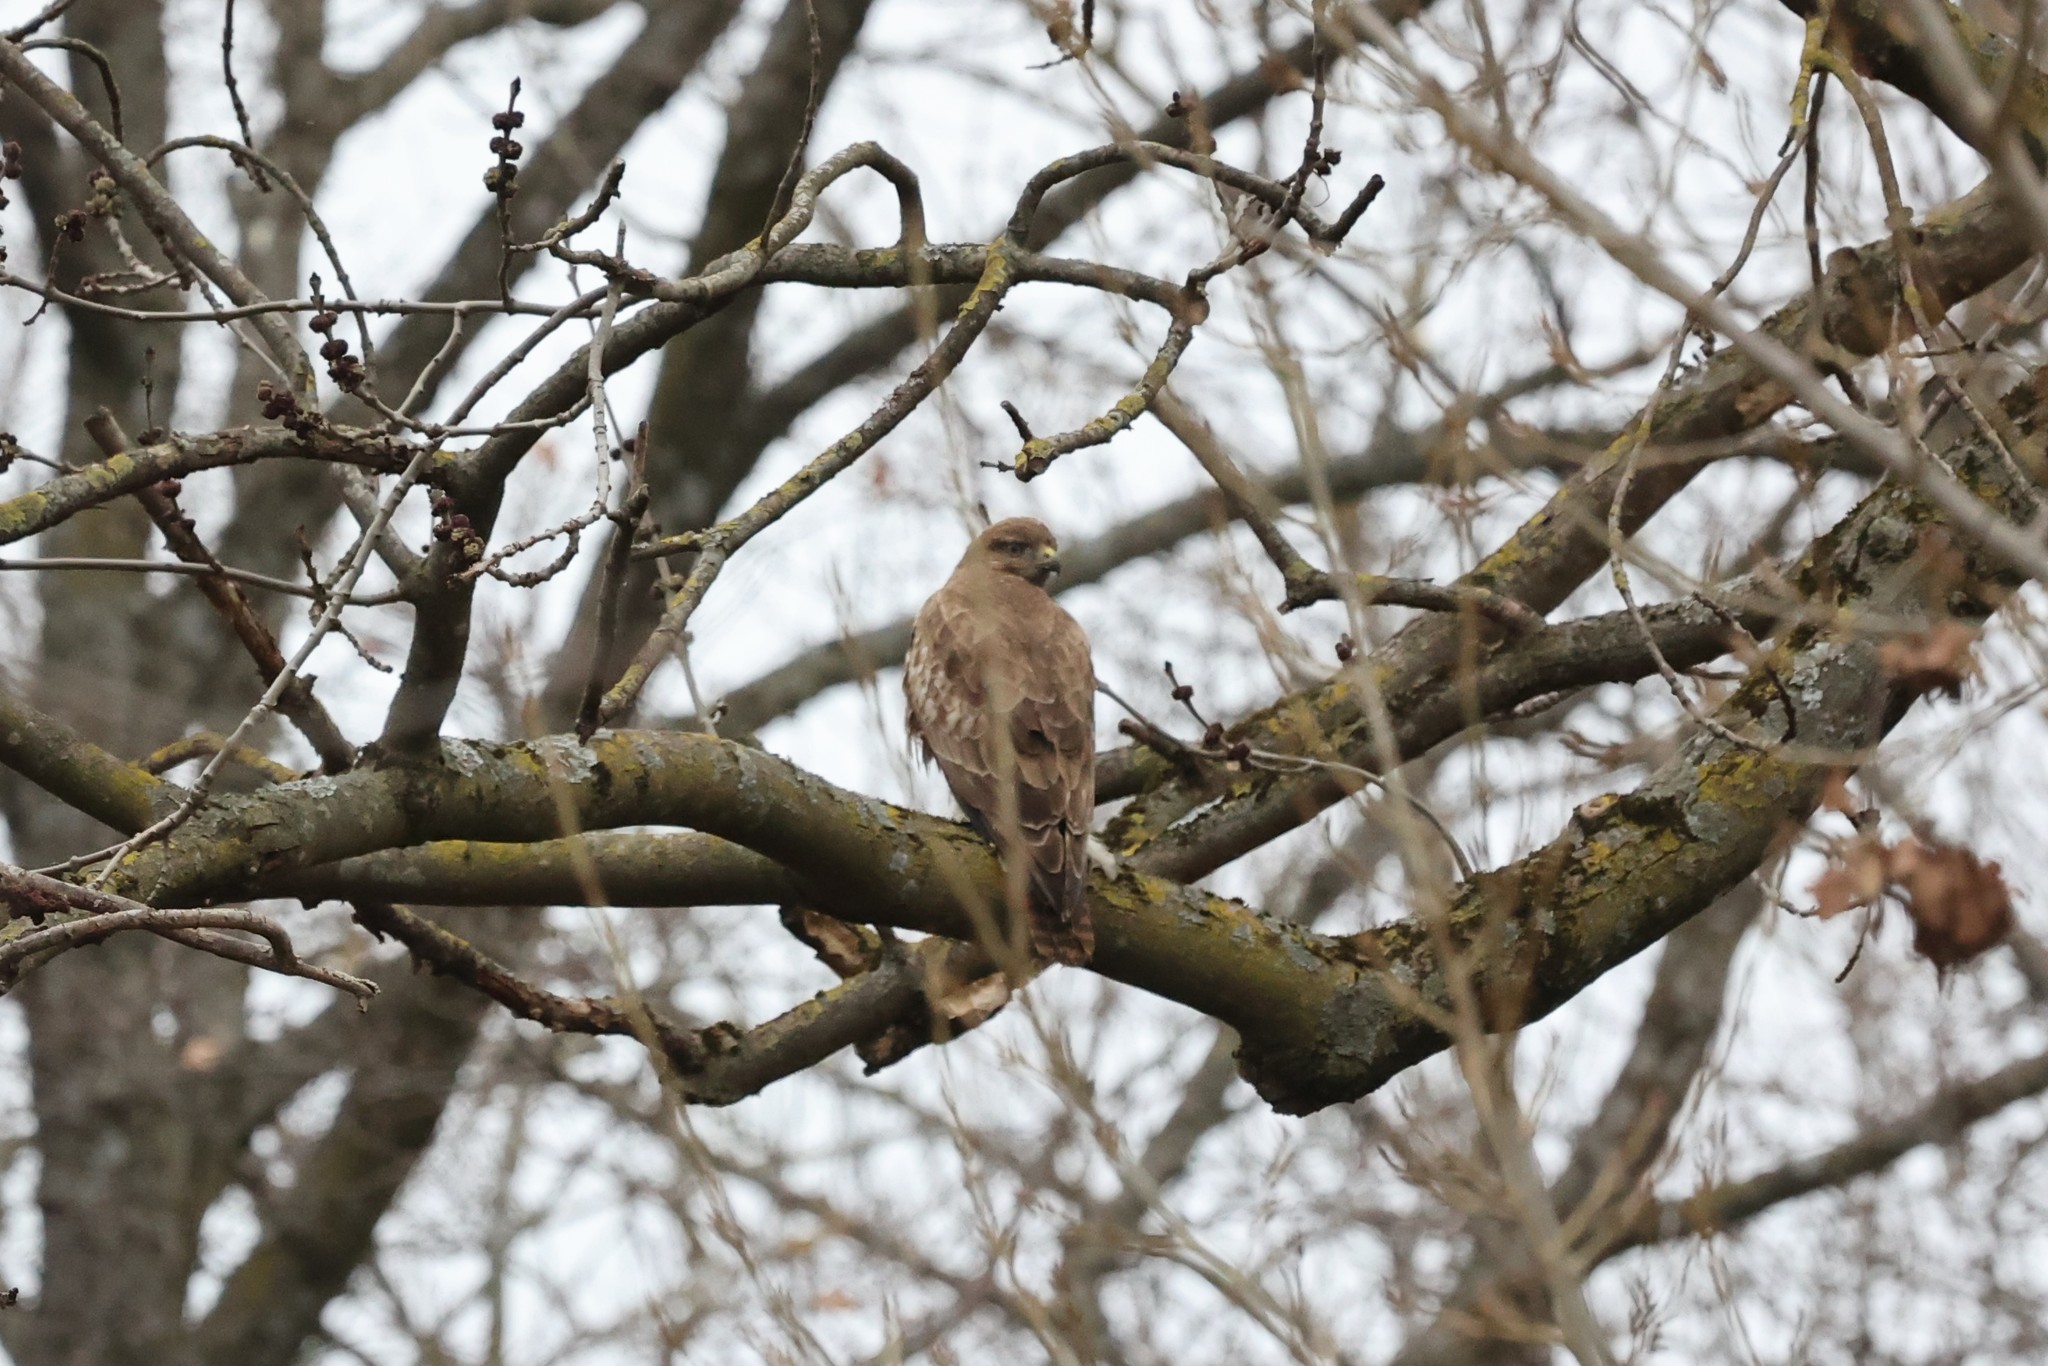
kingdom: Animalia
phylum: Chordata
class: Aves
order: Accipitriformes
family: Accipitridae
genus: Buteo
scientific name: Buteo buteo
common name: Common buzzard
